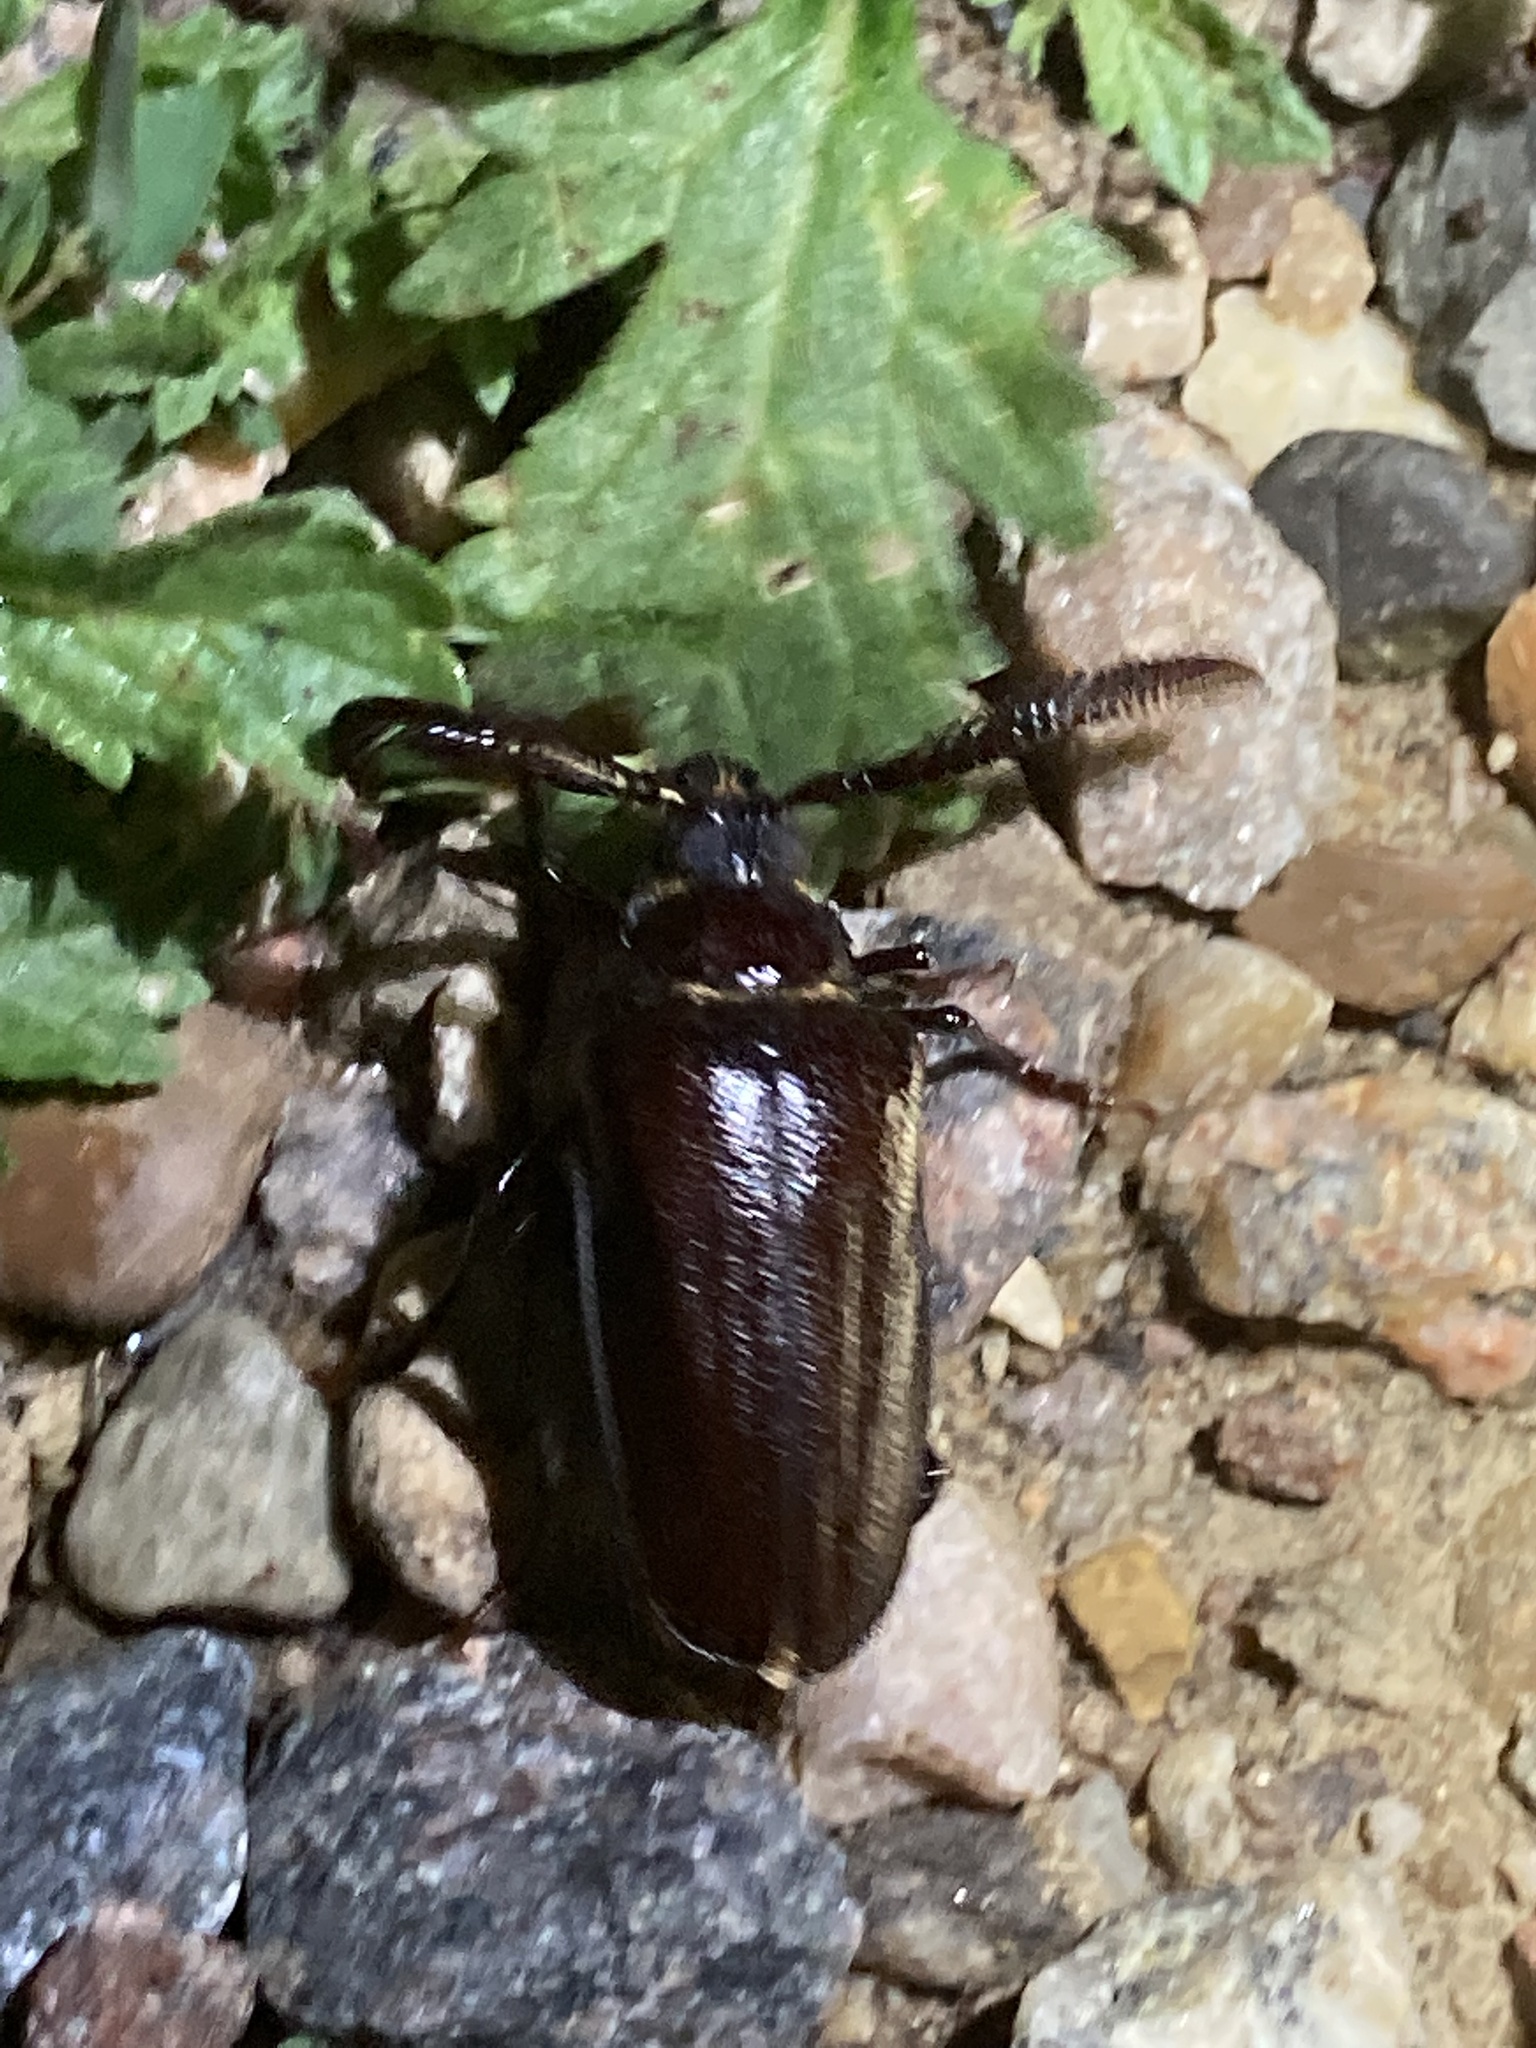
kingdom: Animalia
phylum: Arthropoda
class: Insecta
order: Coleoptera
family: Cerambycidae
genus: Prionus
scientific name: Prionus fissicornis
